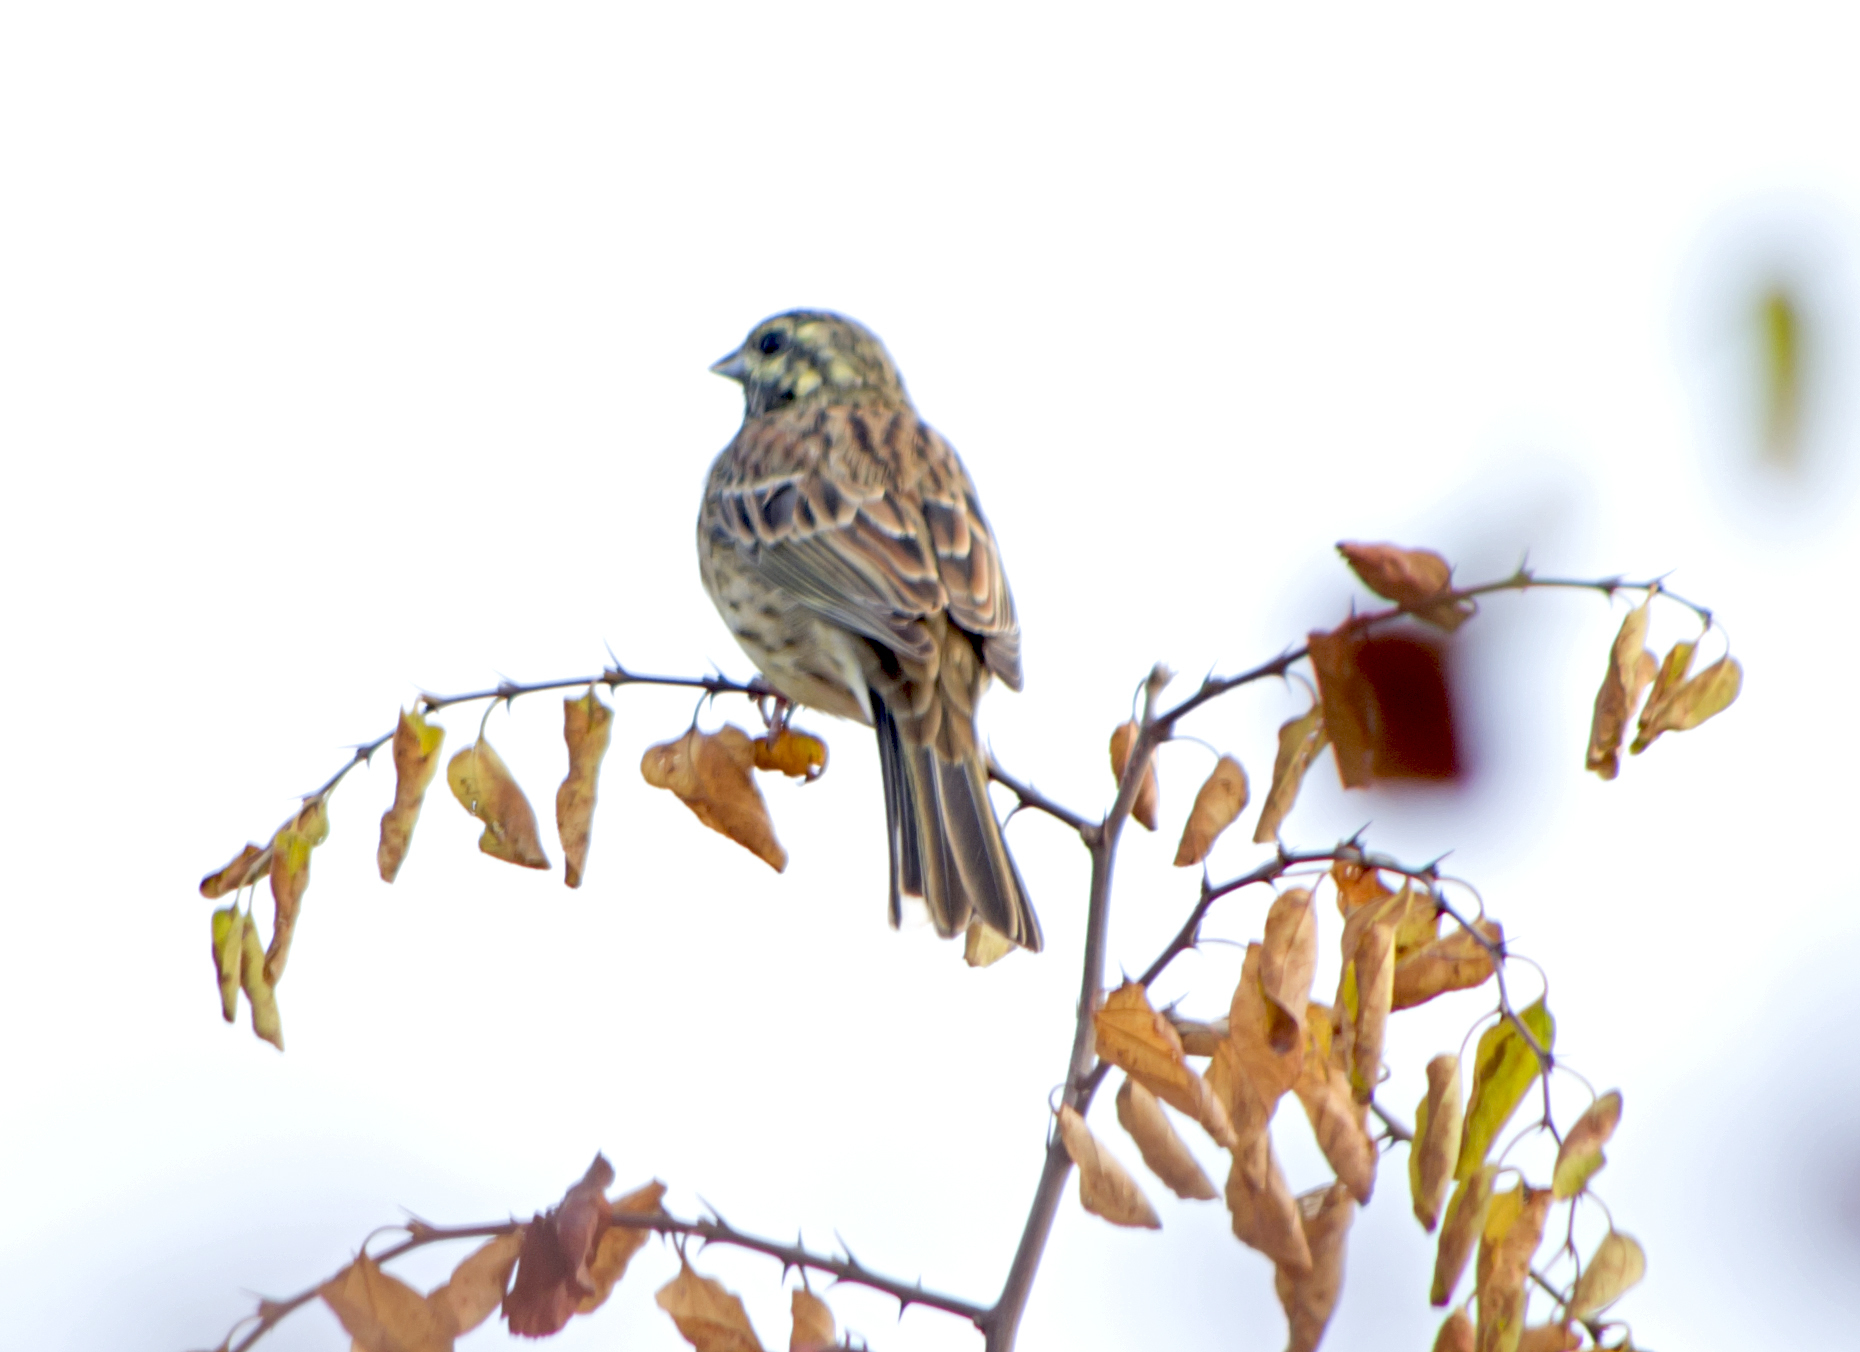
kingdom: Animalia
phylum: Chordata
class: Aves
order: Passeriformes
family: Emberizidae
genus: Emberiza
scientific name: Emberiza cirlus
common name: Cirl bunting
